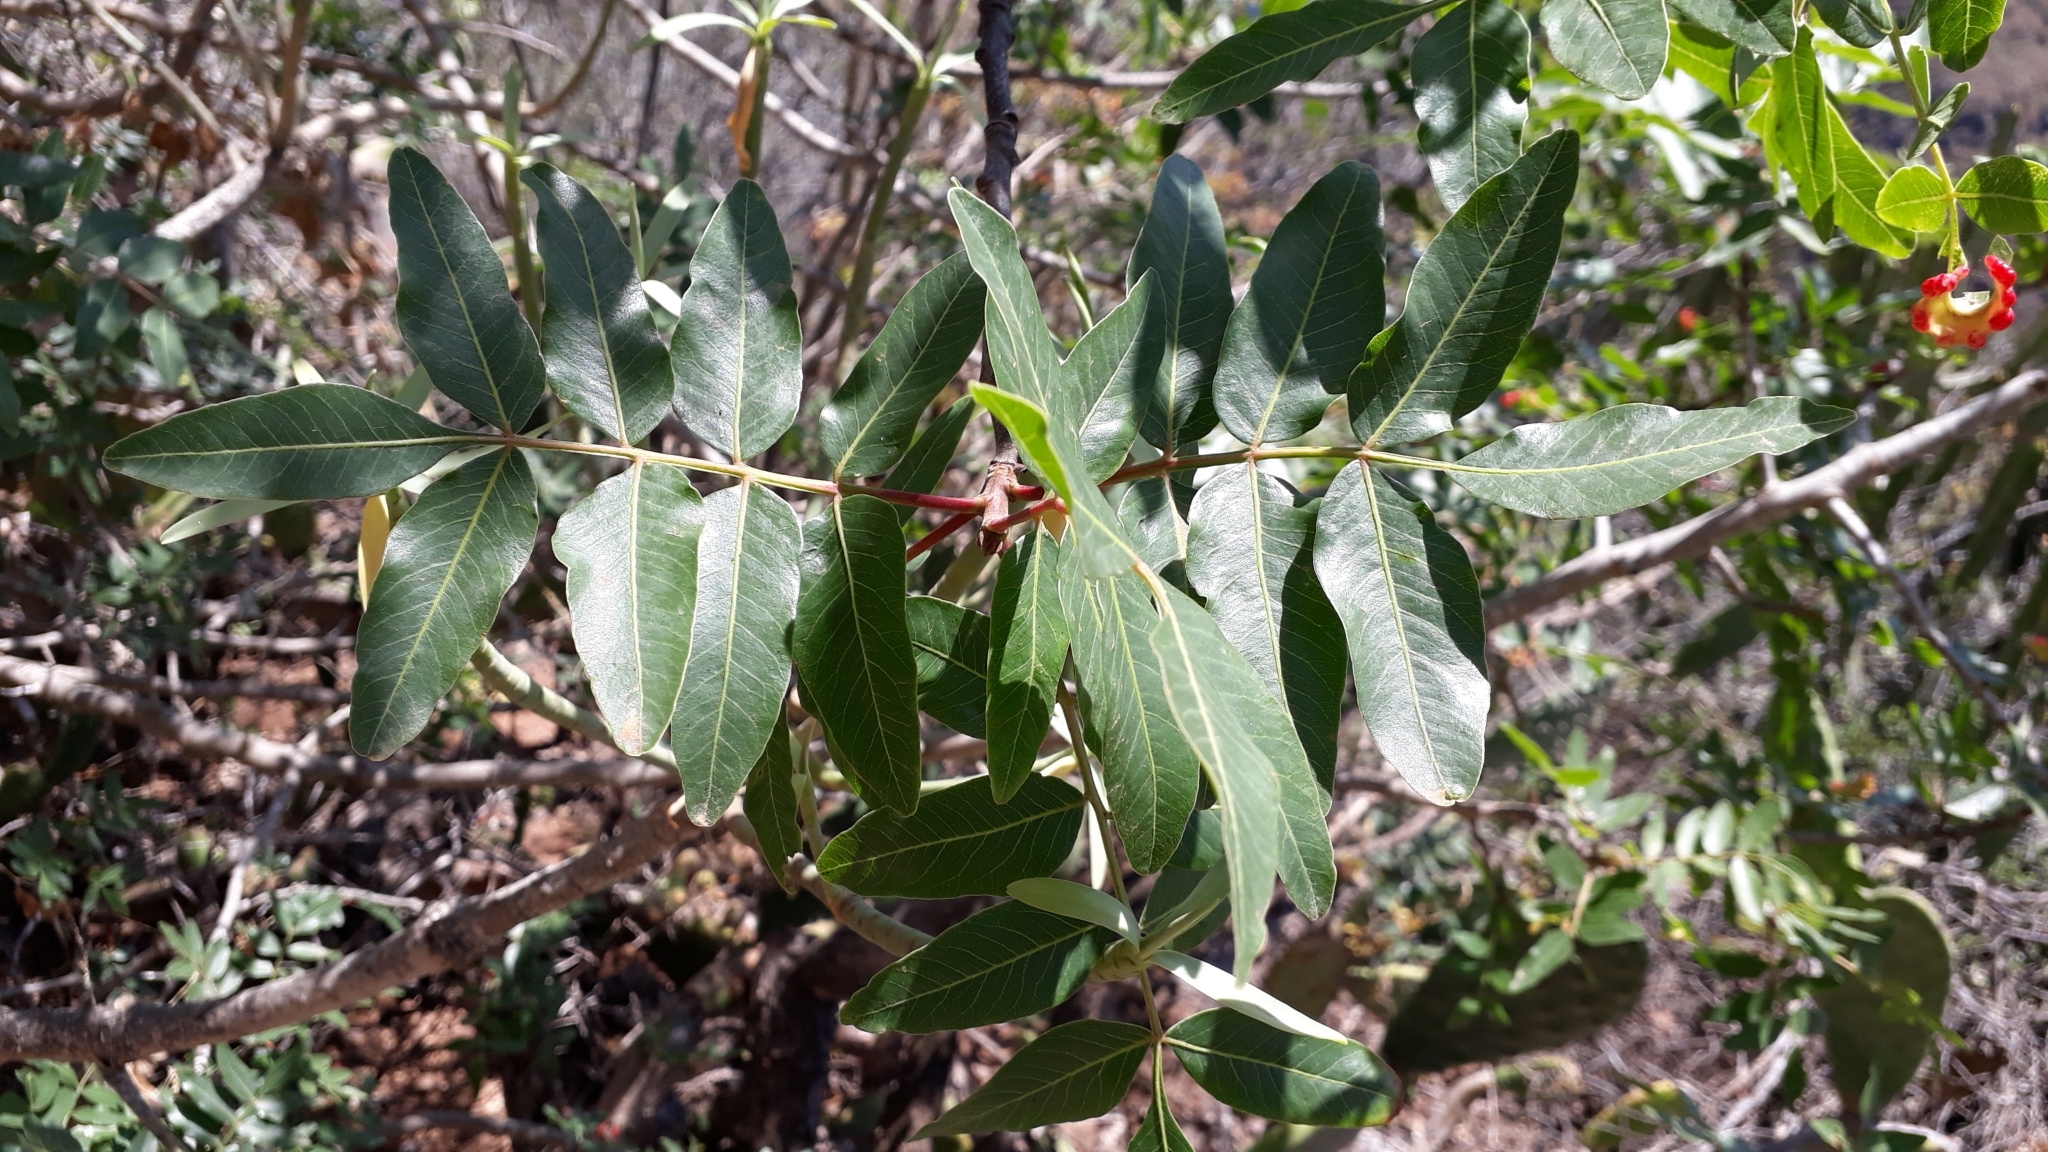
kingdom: Plantae
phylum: Tracheophyta
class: Magnoliopsida
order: Sapindales
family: Anacardiaceae
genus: Pistacia
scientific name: Pistacia atlantica
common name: Mt. atlas mastic tree
